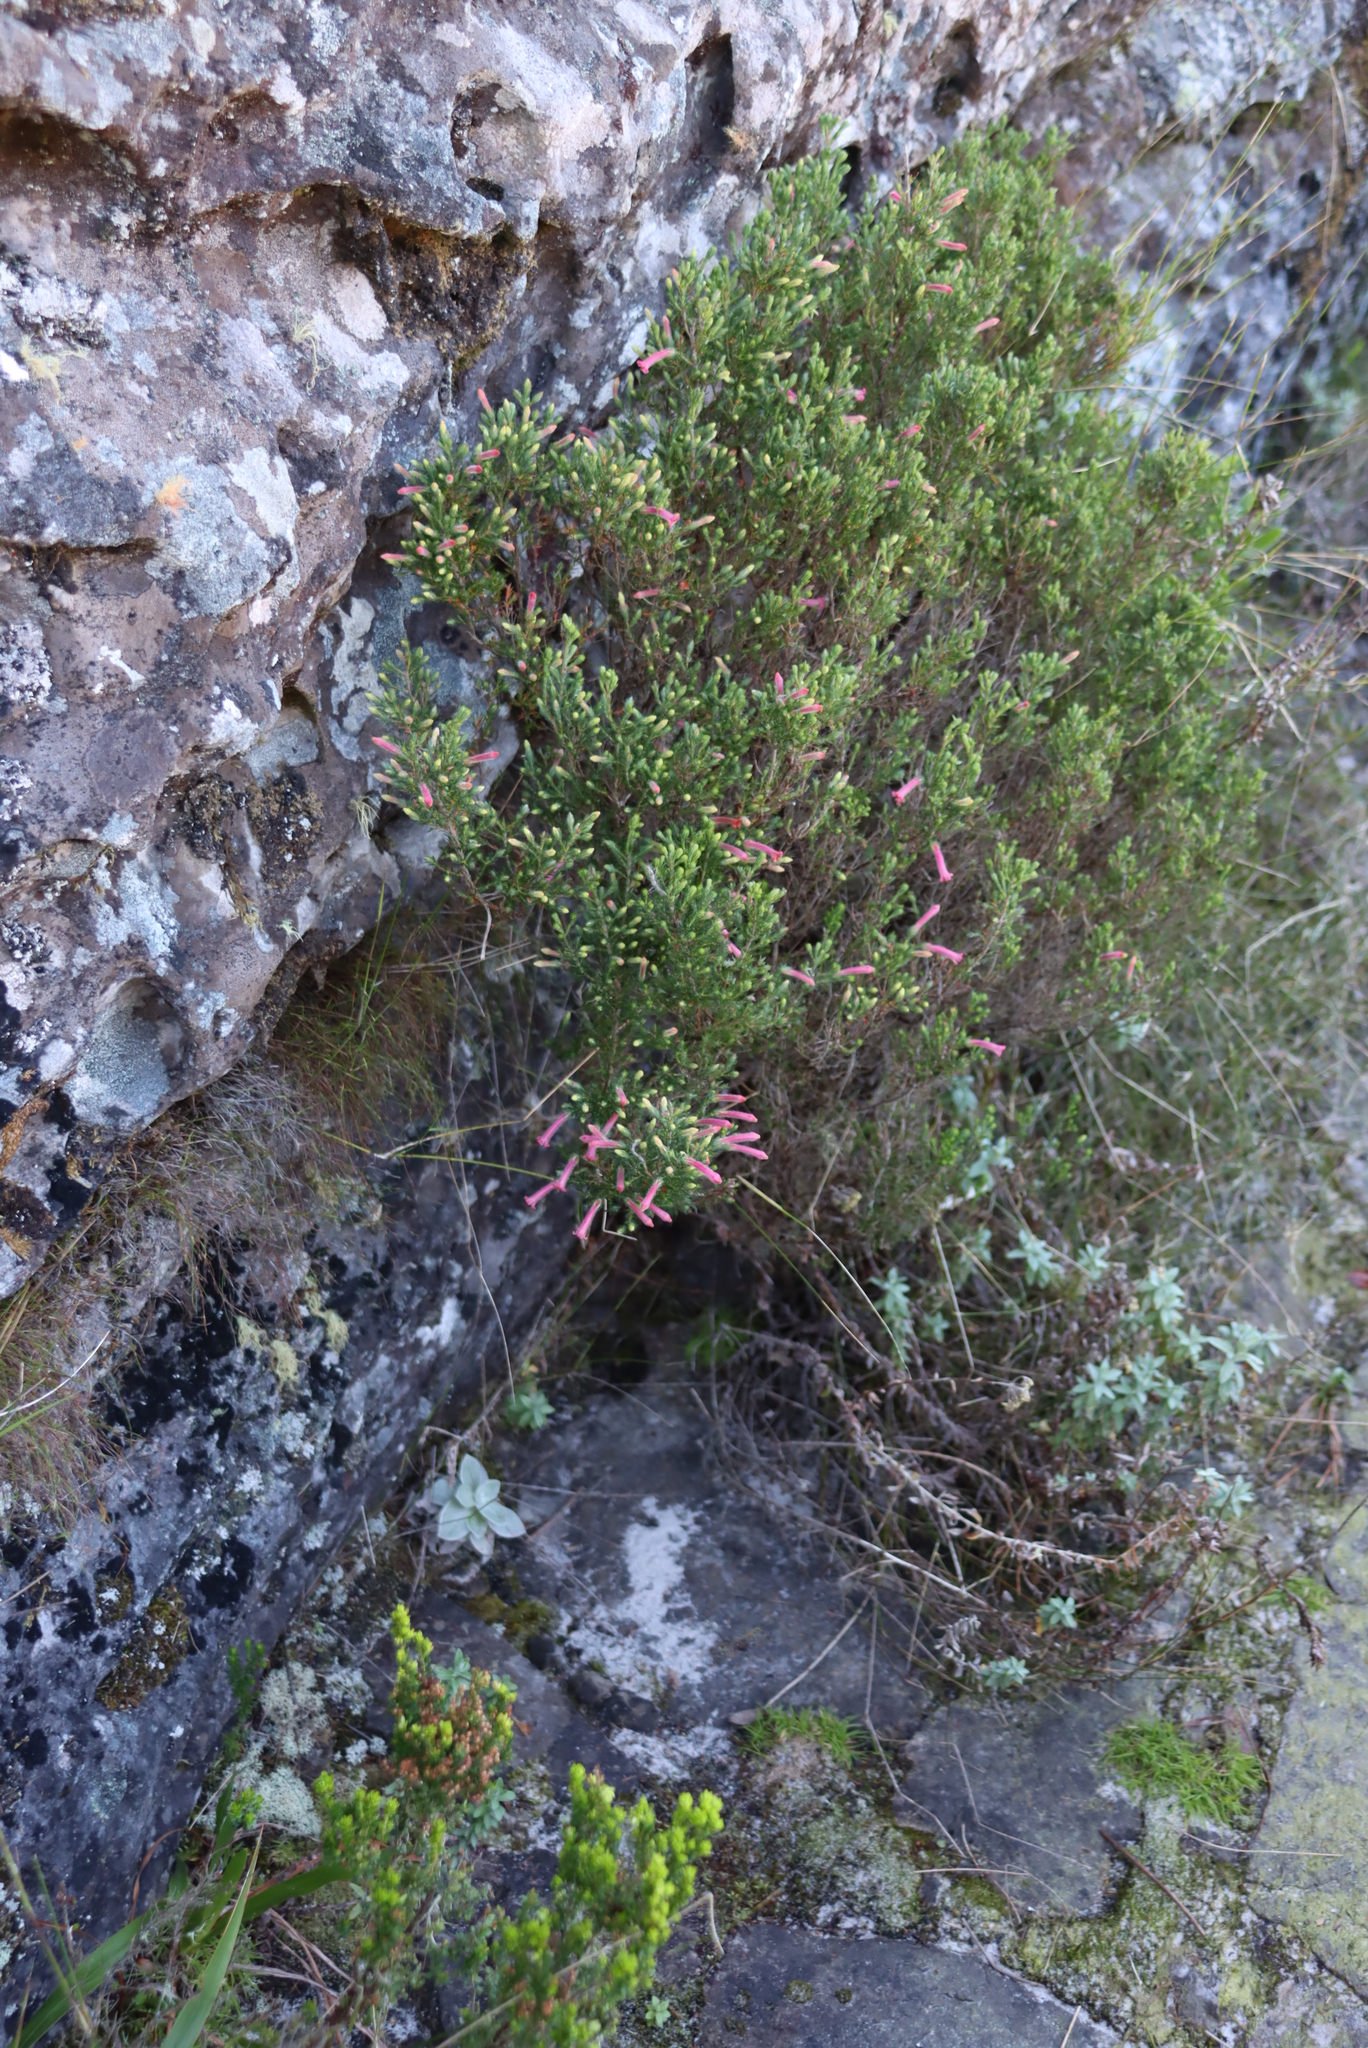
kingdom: Plantae
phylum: Tracheophyta
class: Magnoliopsida
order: Ericales
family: Ericaceae
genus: Erica
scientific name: Erica curviflora
